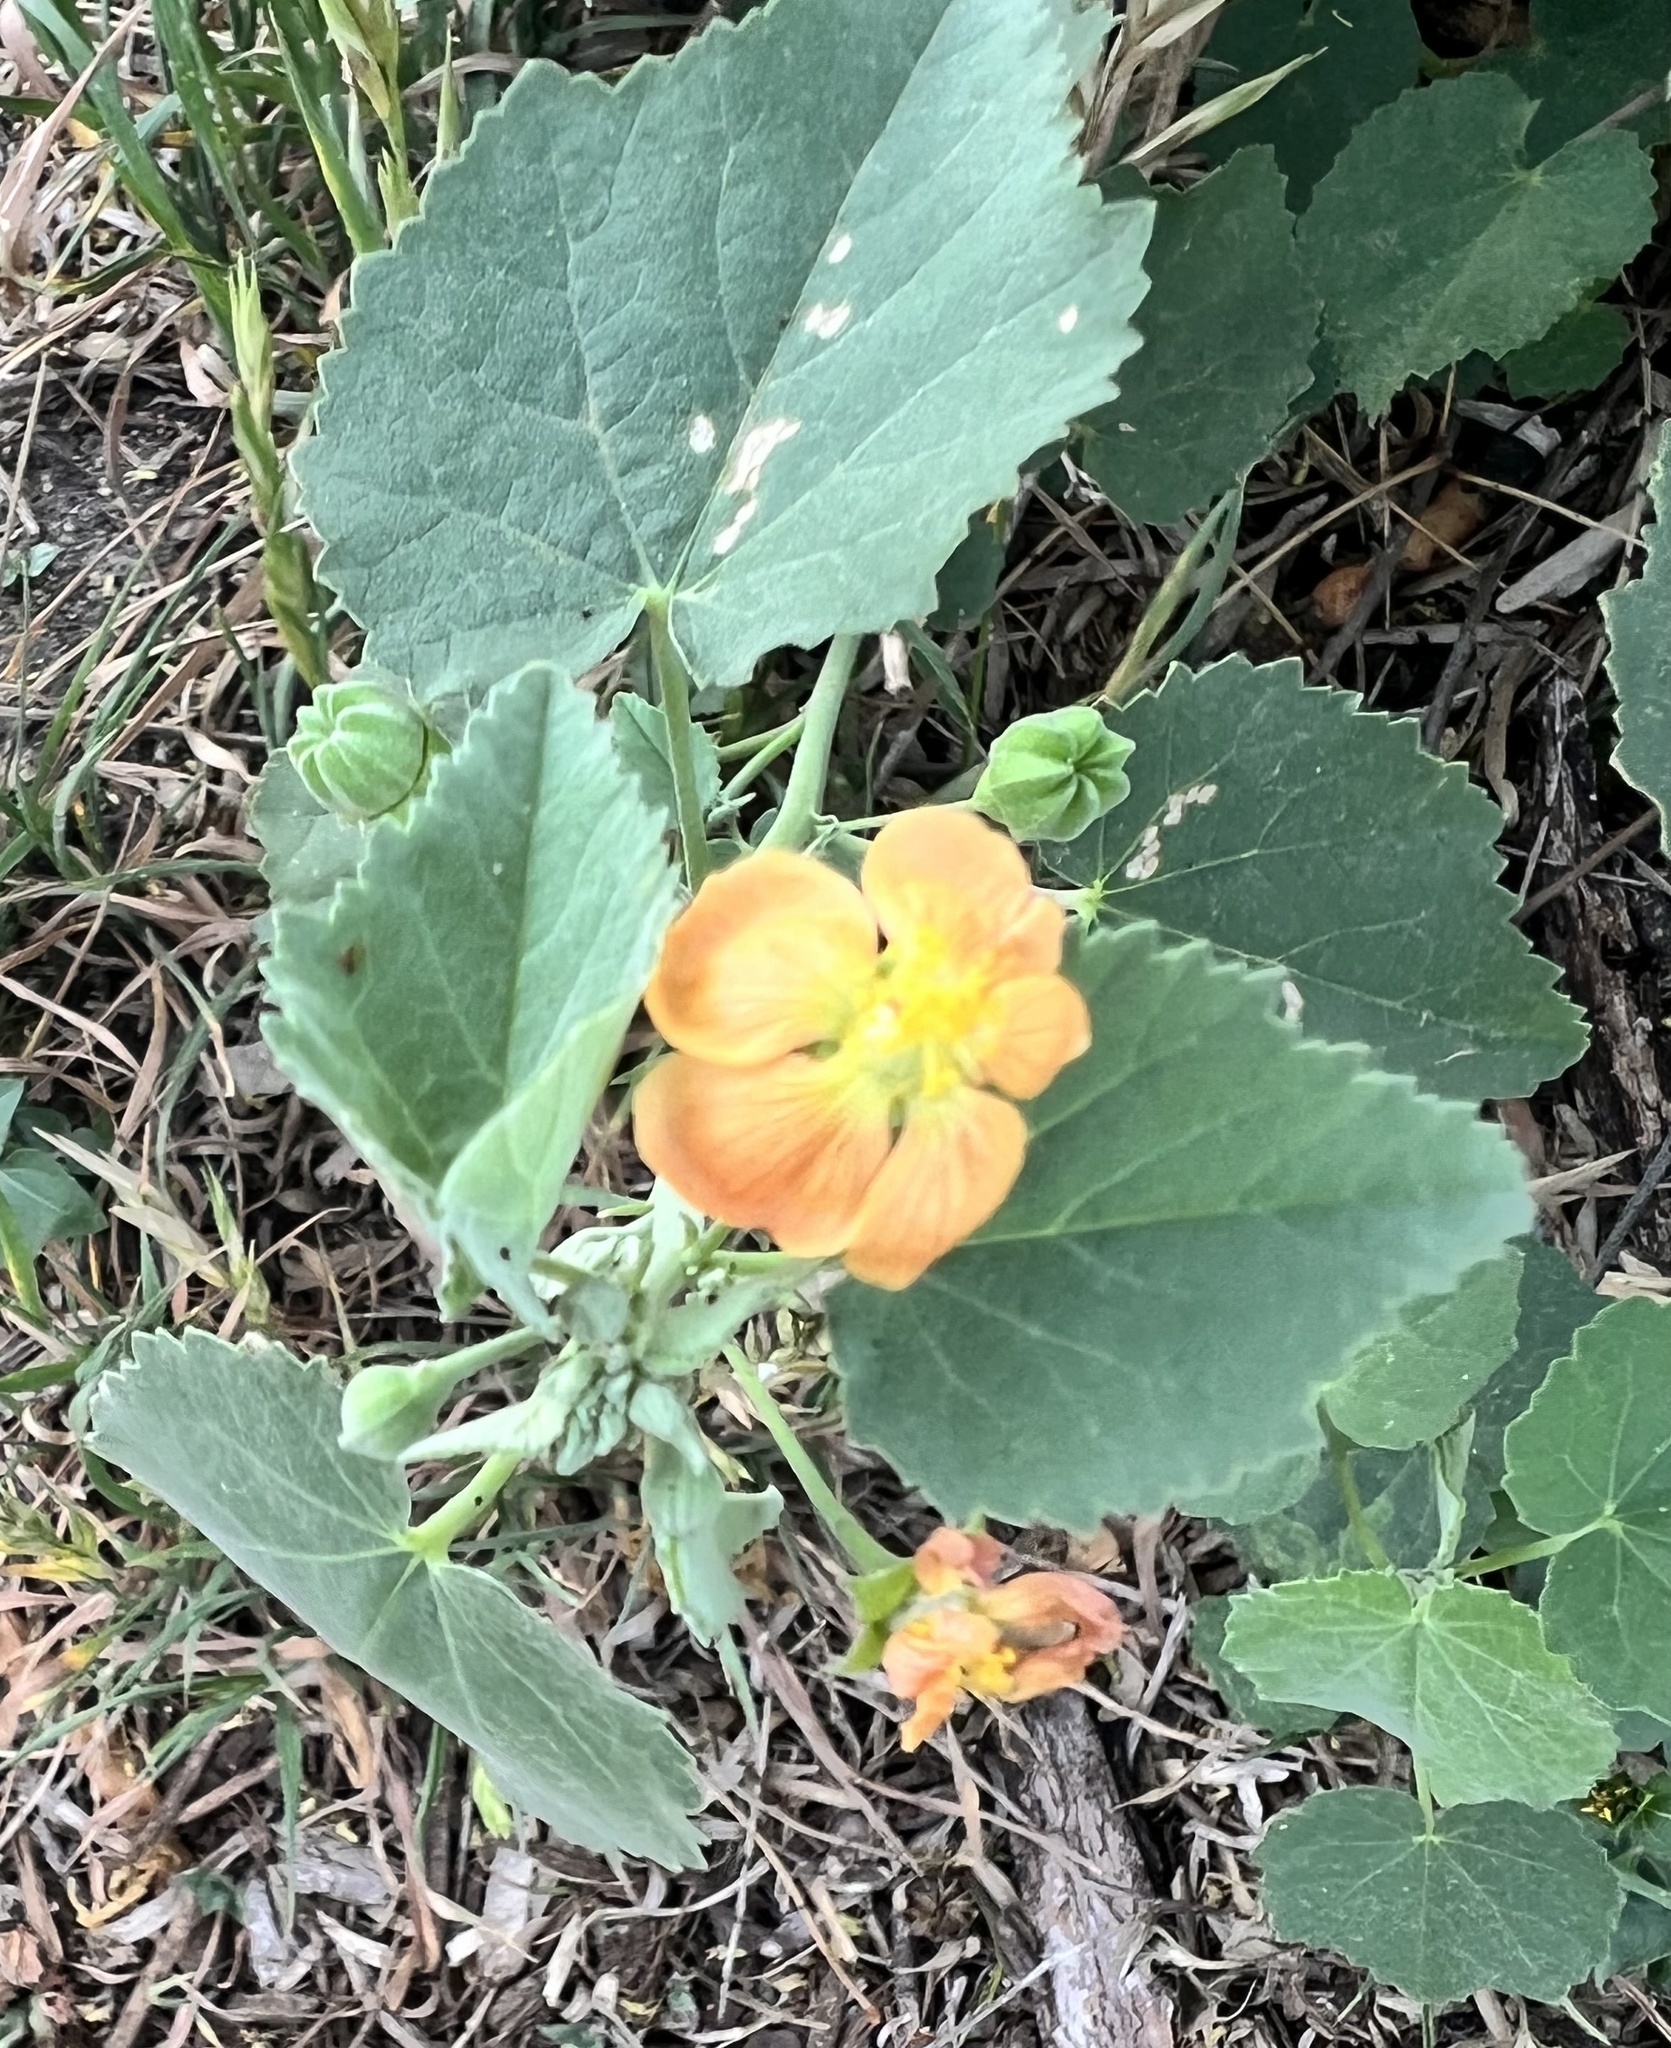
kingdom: Plantae
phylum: Tracheophyta
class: Magnoliopsida
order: Malvales
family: Malvaceae
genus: Abutilon
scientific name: Abutilon fruticosum
